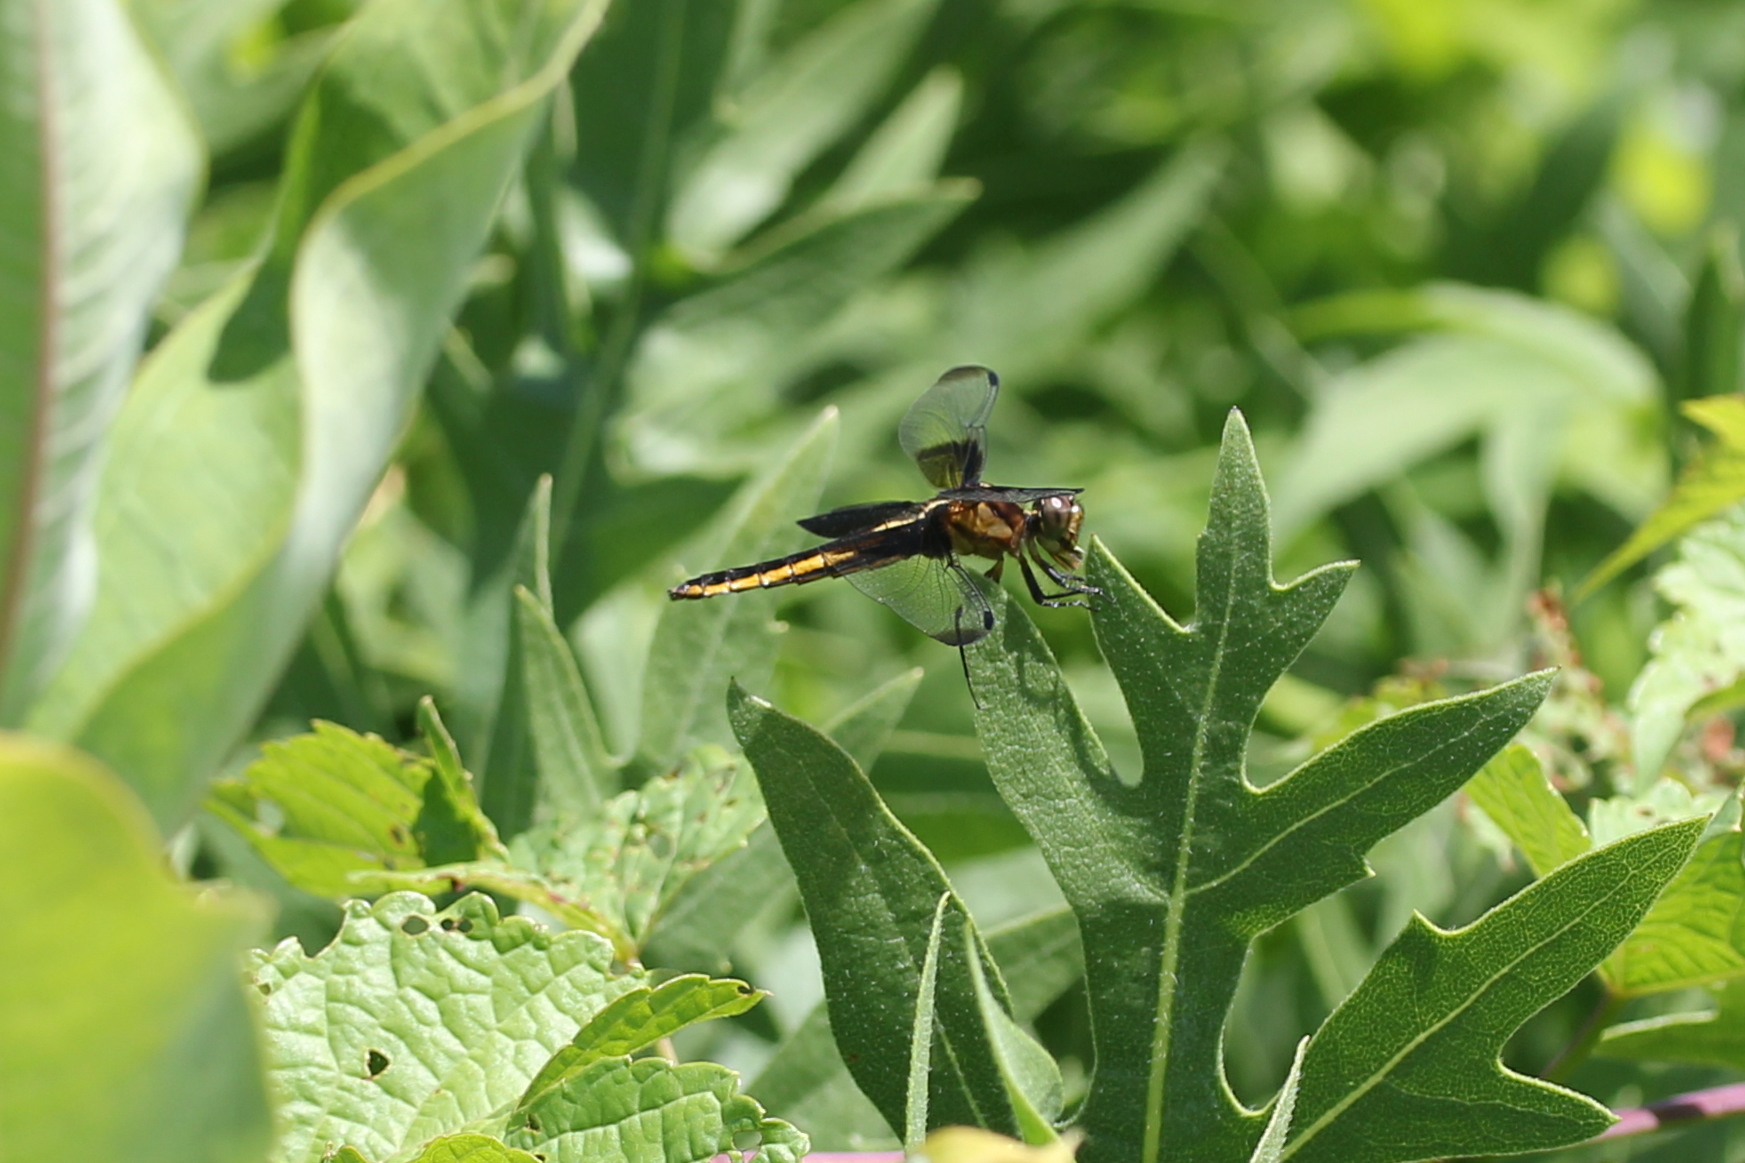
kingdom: Animalia
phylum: Arthropoda
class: Insecta
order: Odonata
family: Libellulidae
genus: Libellula
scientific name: Libellula luctuosa
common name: Widow skimmer
